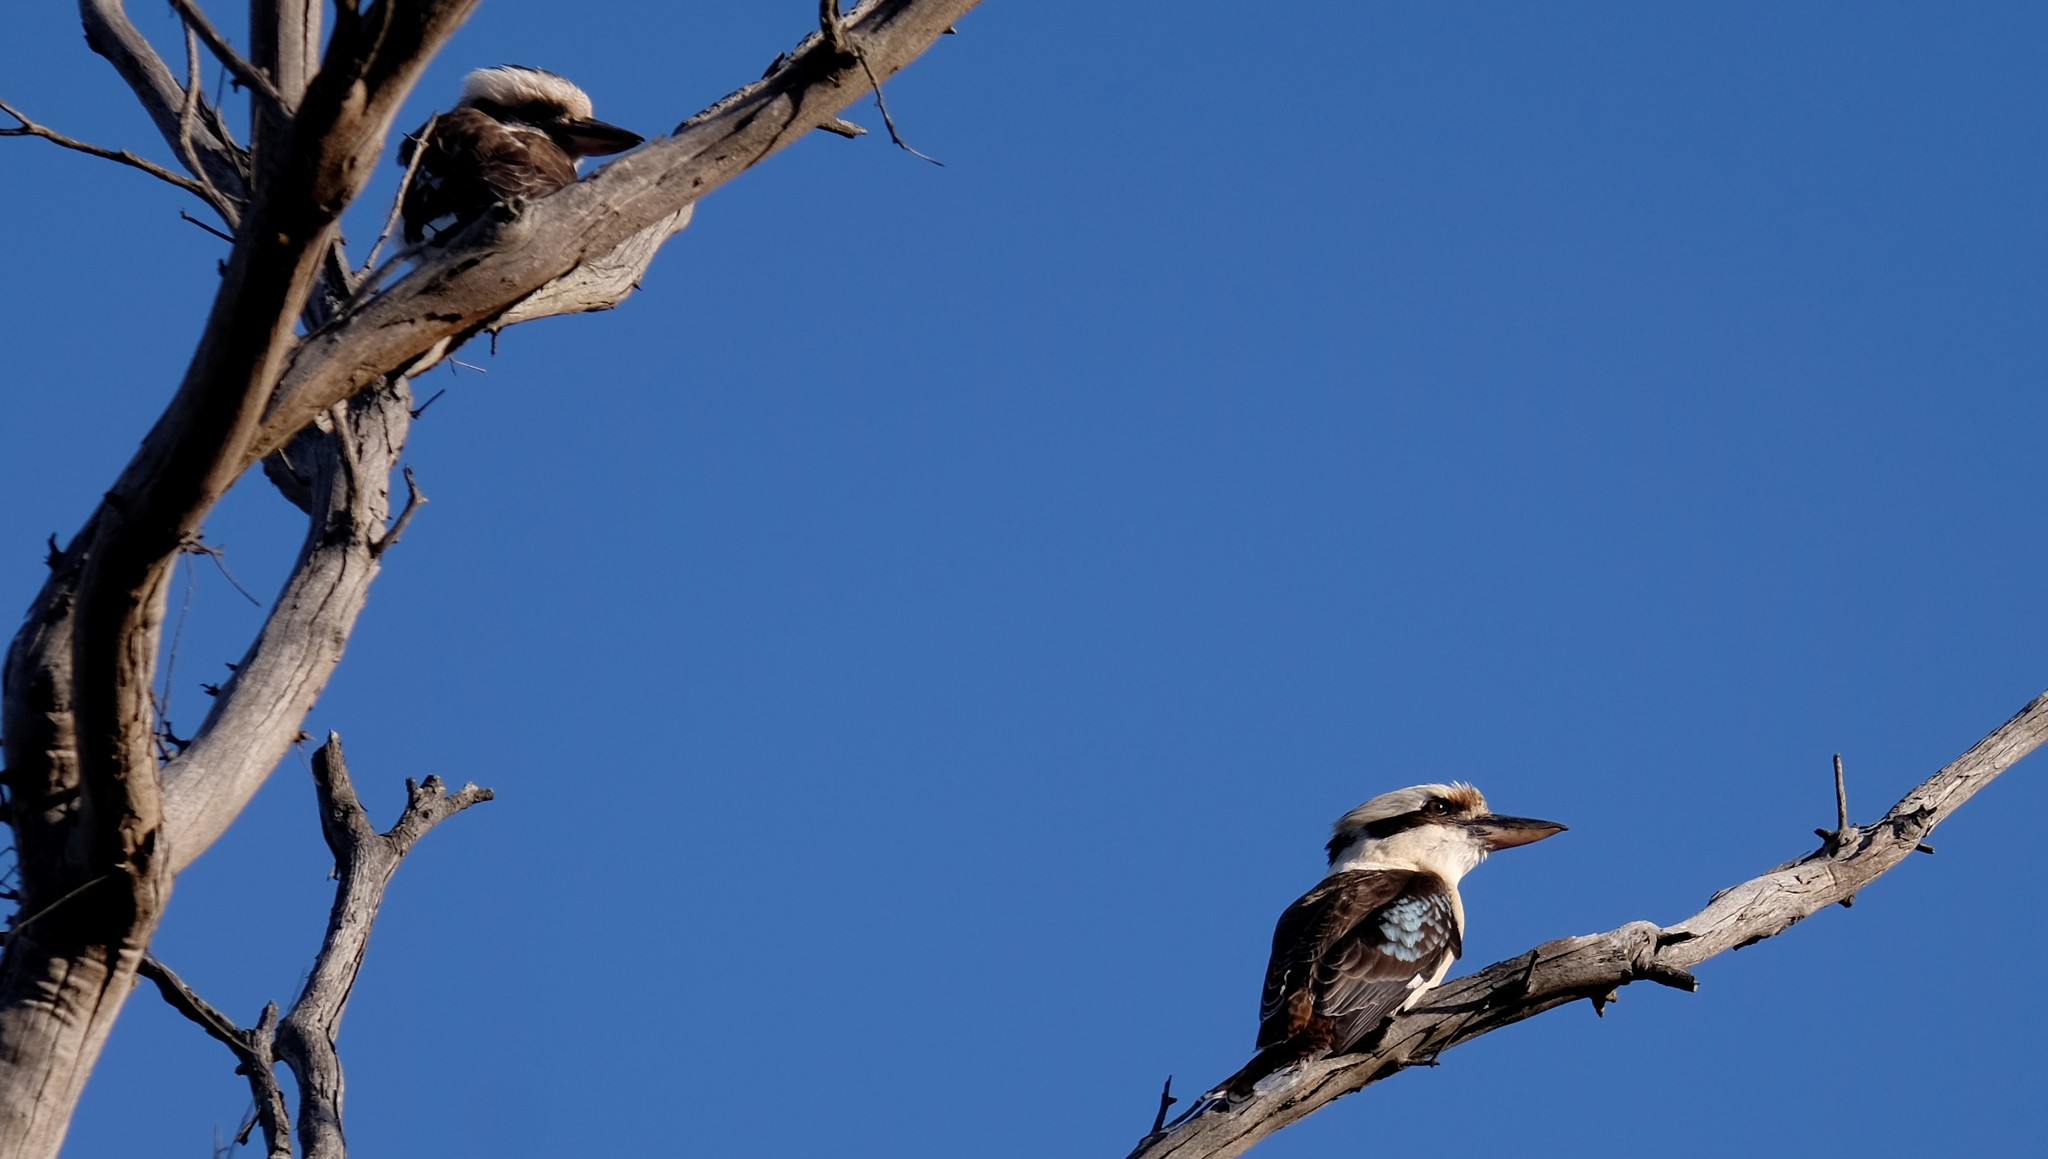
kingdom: Animalia
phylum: Chordata
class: Aves
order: Coraciiformes
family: Alcedinidae
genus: Dacelo
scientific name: Dacelo novaeguineae
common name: Laughing kookaburra
